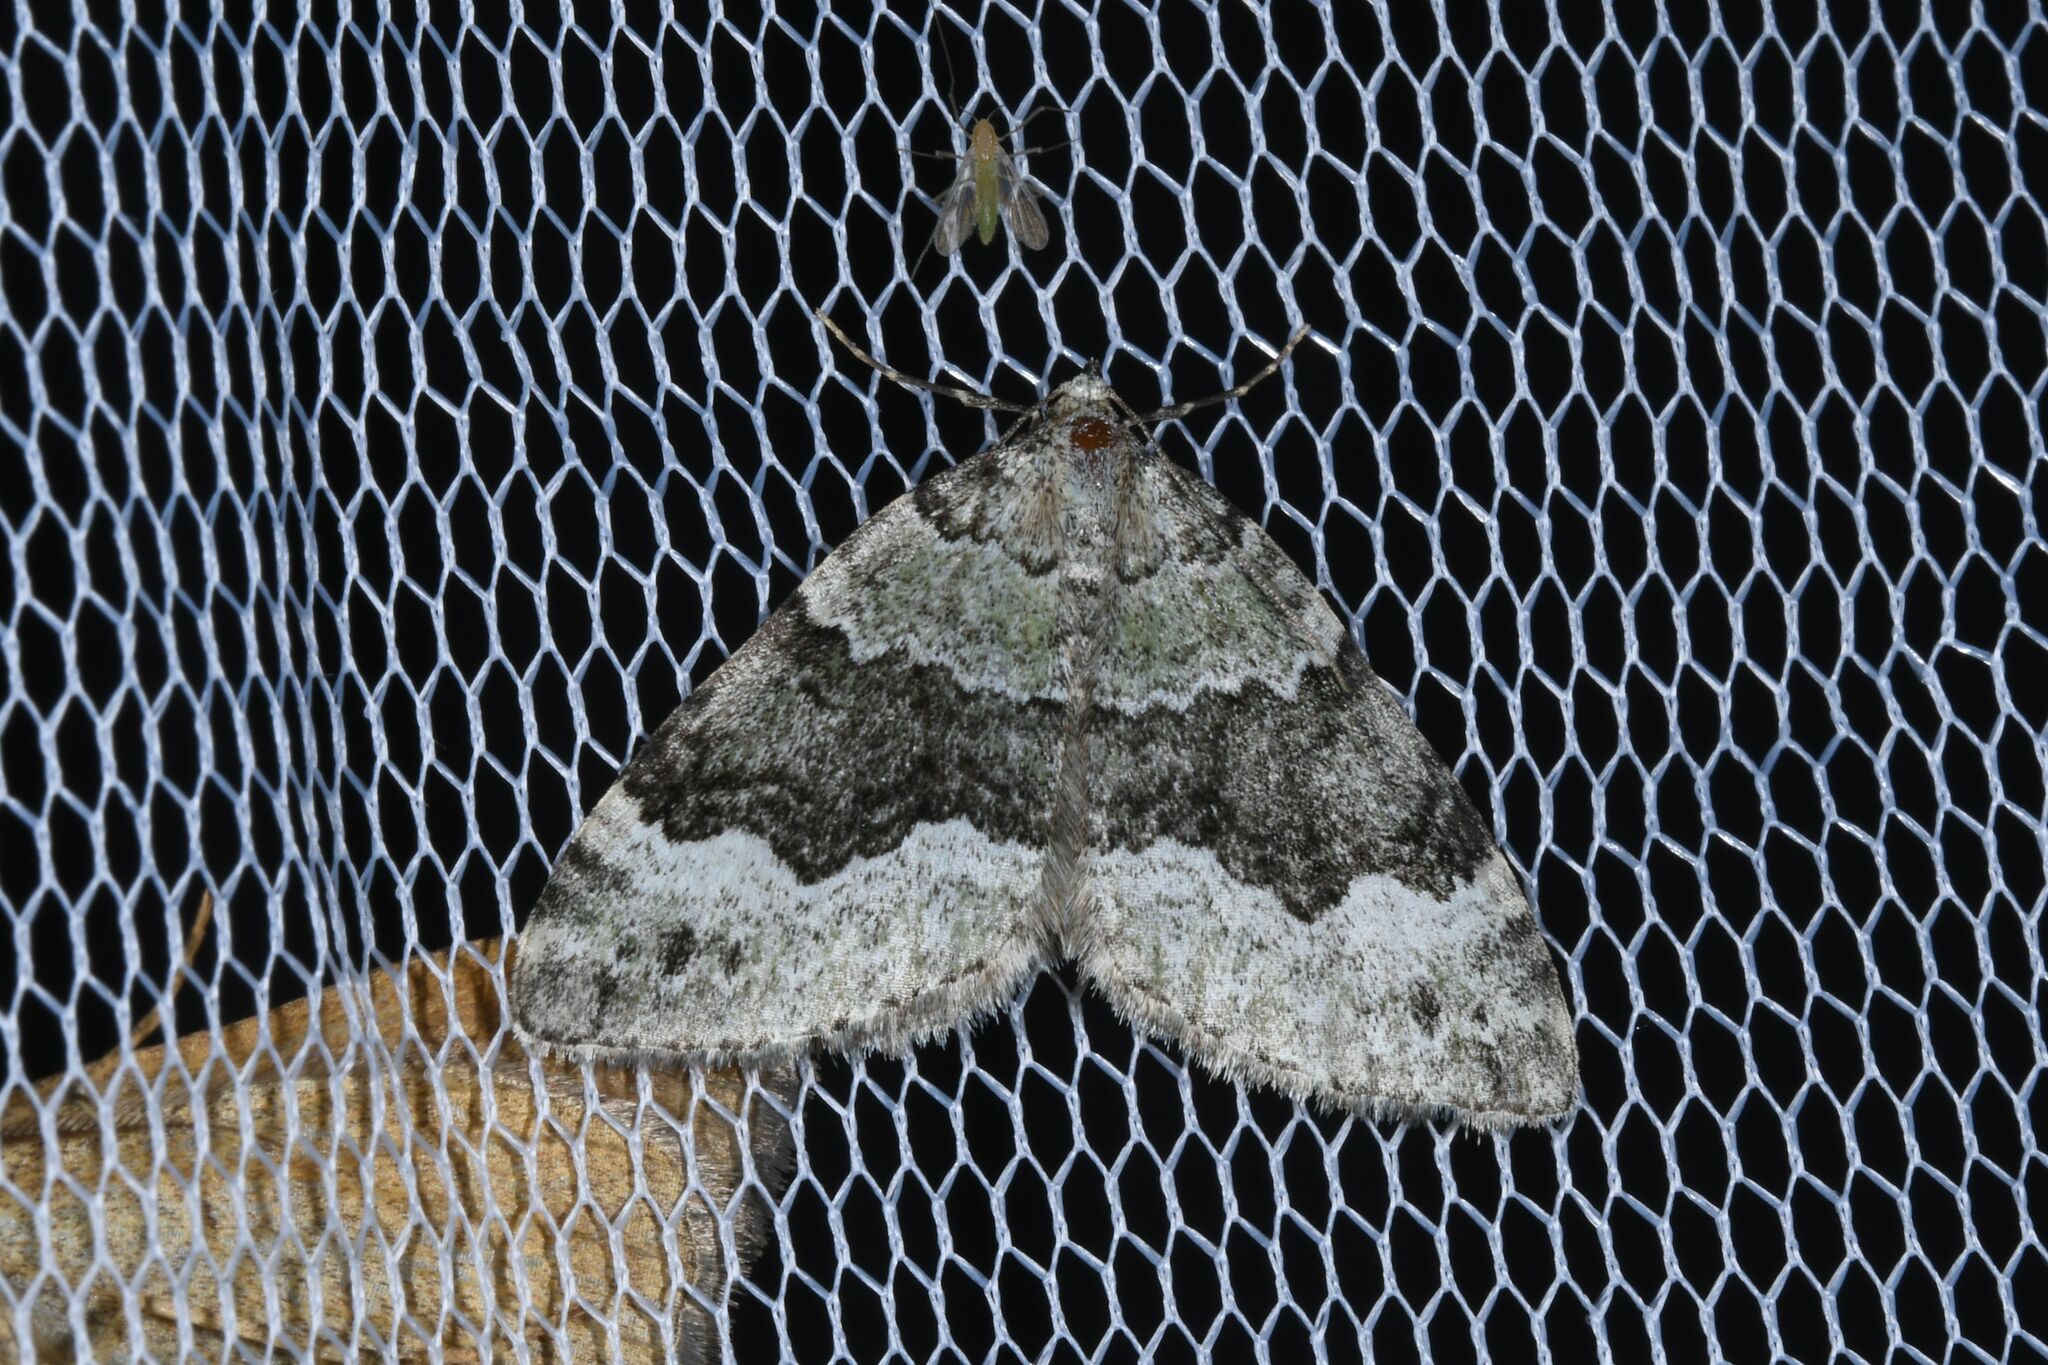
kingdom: Animalia
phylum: Arthropoda
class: Insecta
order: Lepidoptera
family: Geometridae
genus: Colostygia
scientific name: Colostygia aptata
